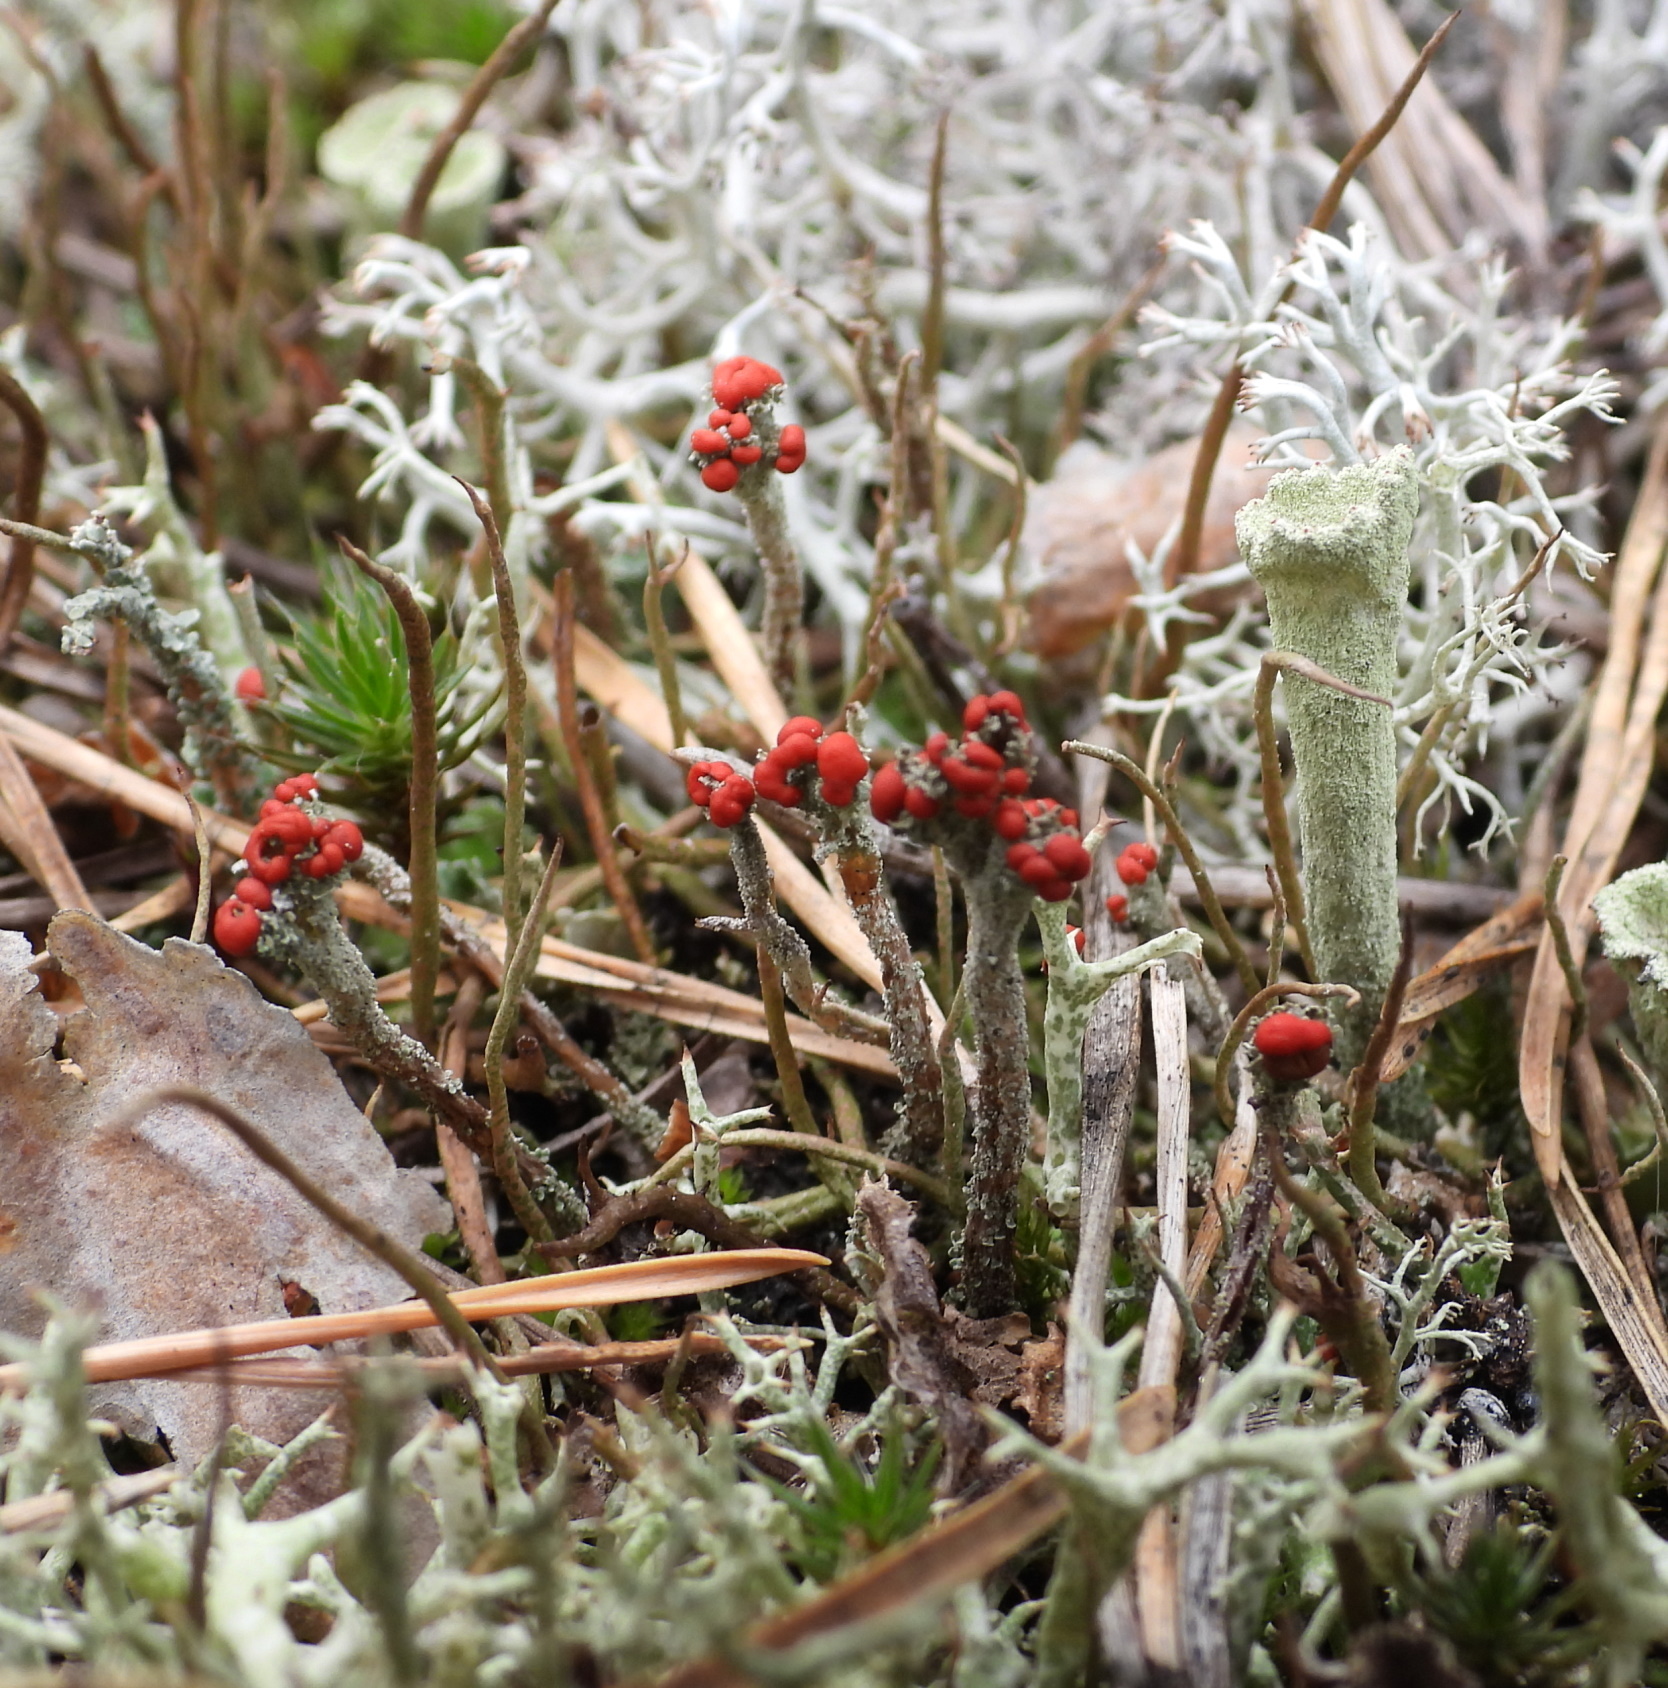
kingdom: Fungi
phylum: Ascomycota
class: Lecanoromycetes
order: Lecanorales
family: Cladoniaceae
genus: Cladonia
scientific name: Cladonia floerkeana
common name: Gritty british soldiers lichen
